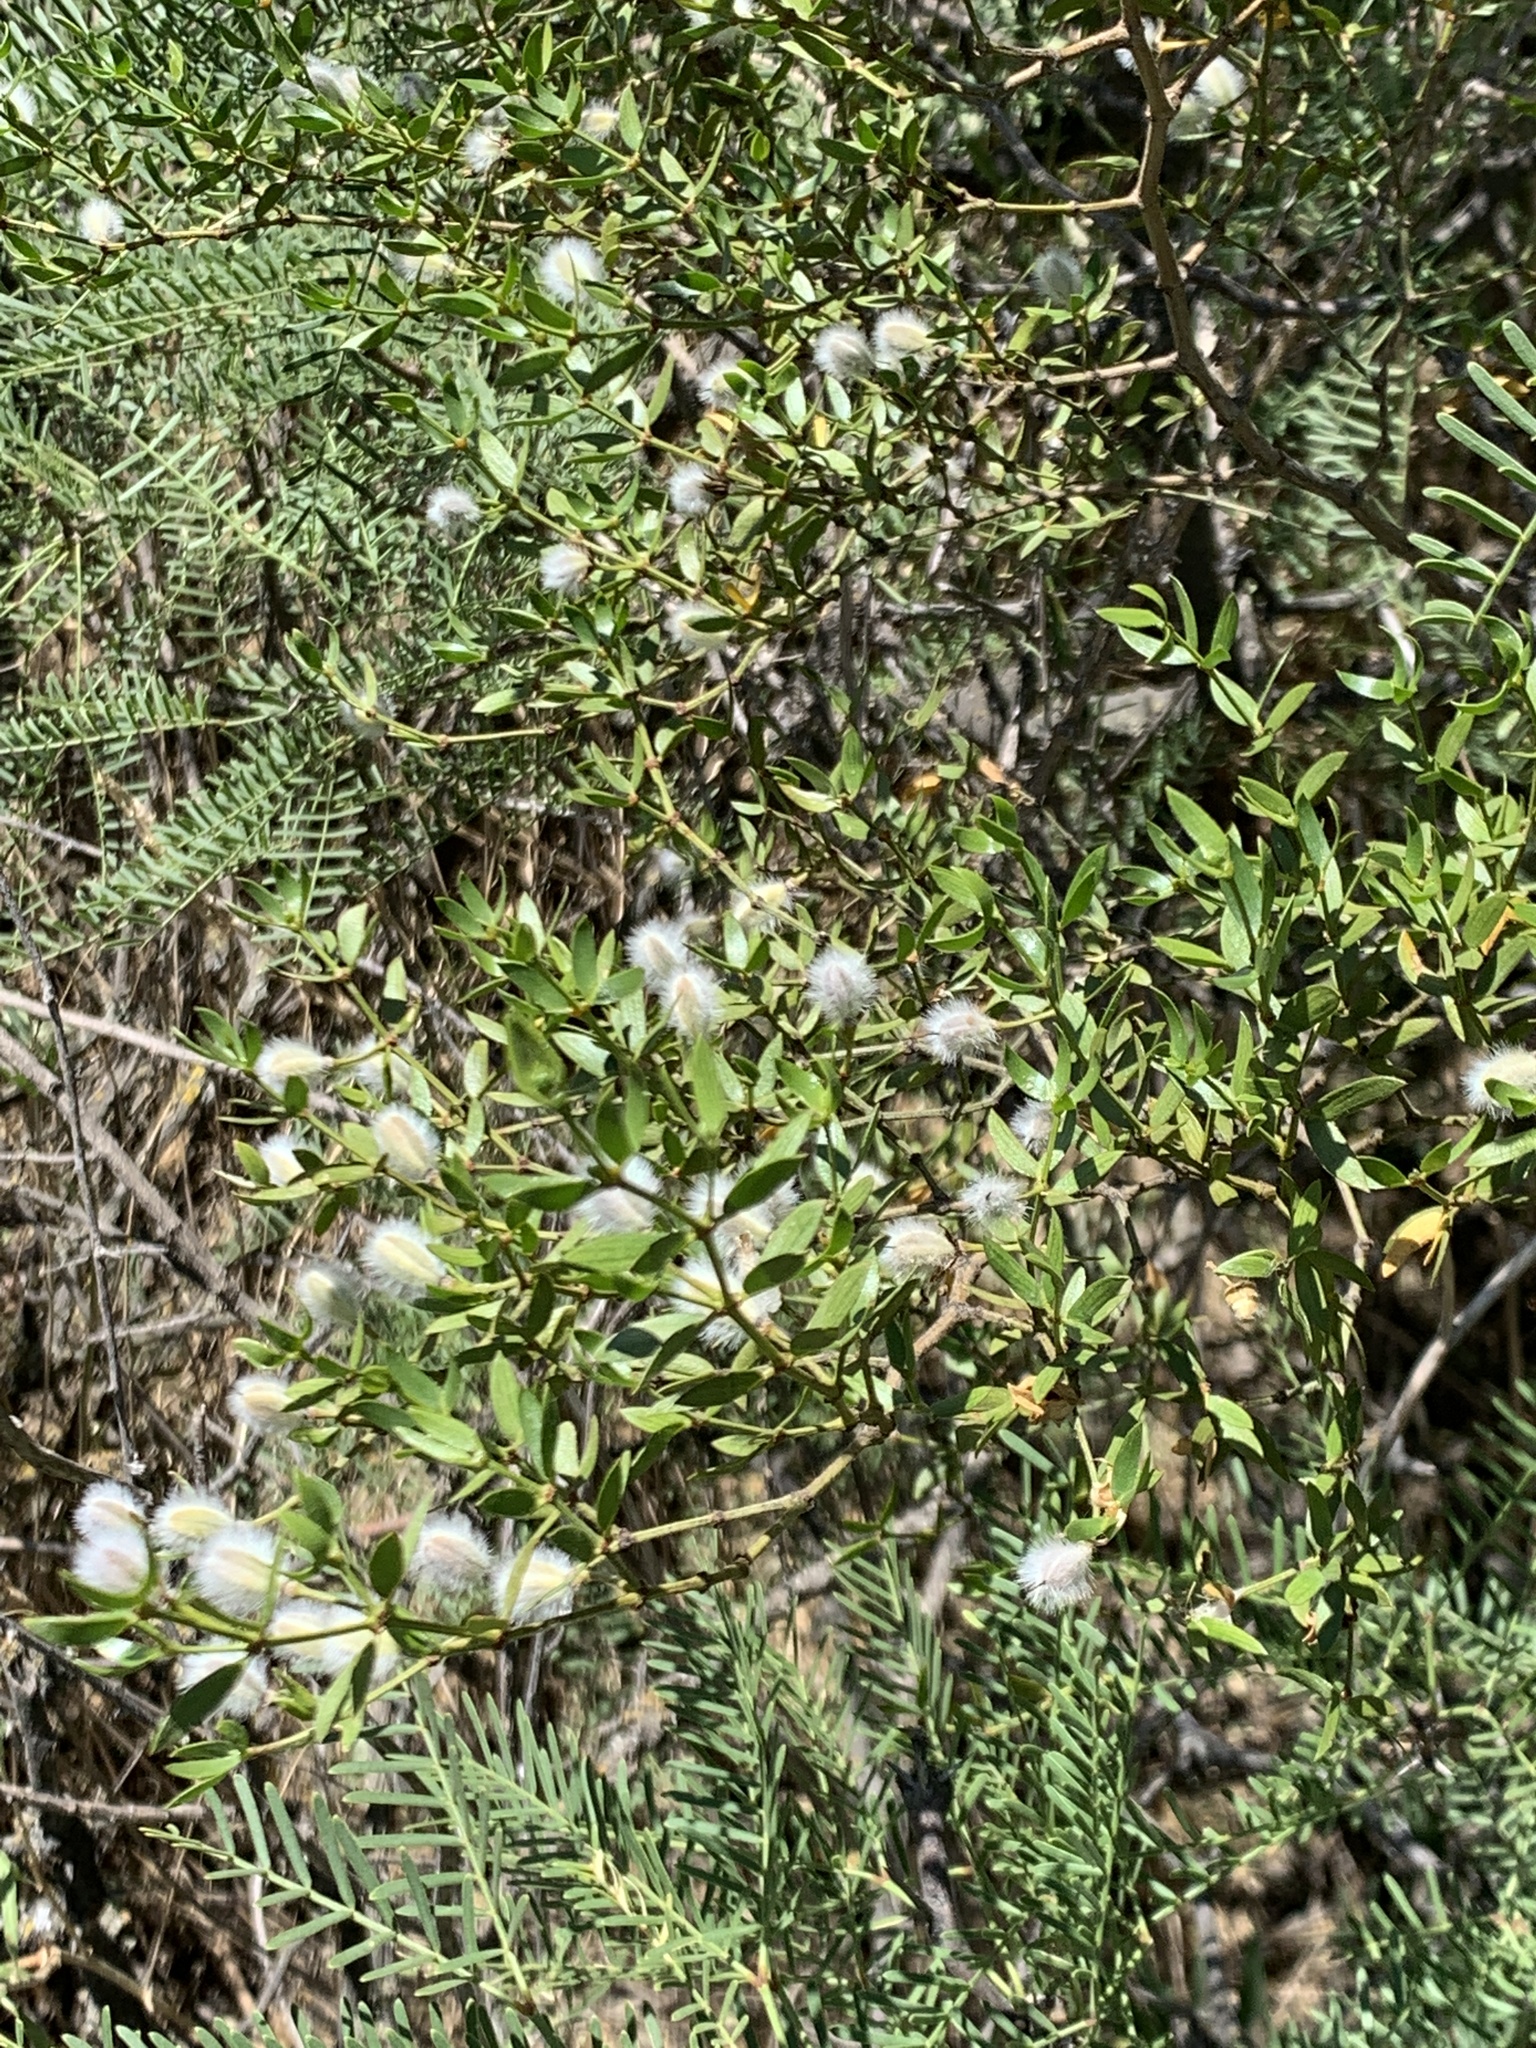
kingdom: Plantae
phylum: Tracheophyta
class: Magnoliopsida
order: Zygophyllales
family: Zygophyllaceae
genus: Larrea
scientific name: Larrea divaricata
